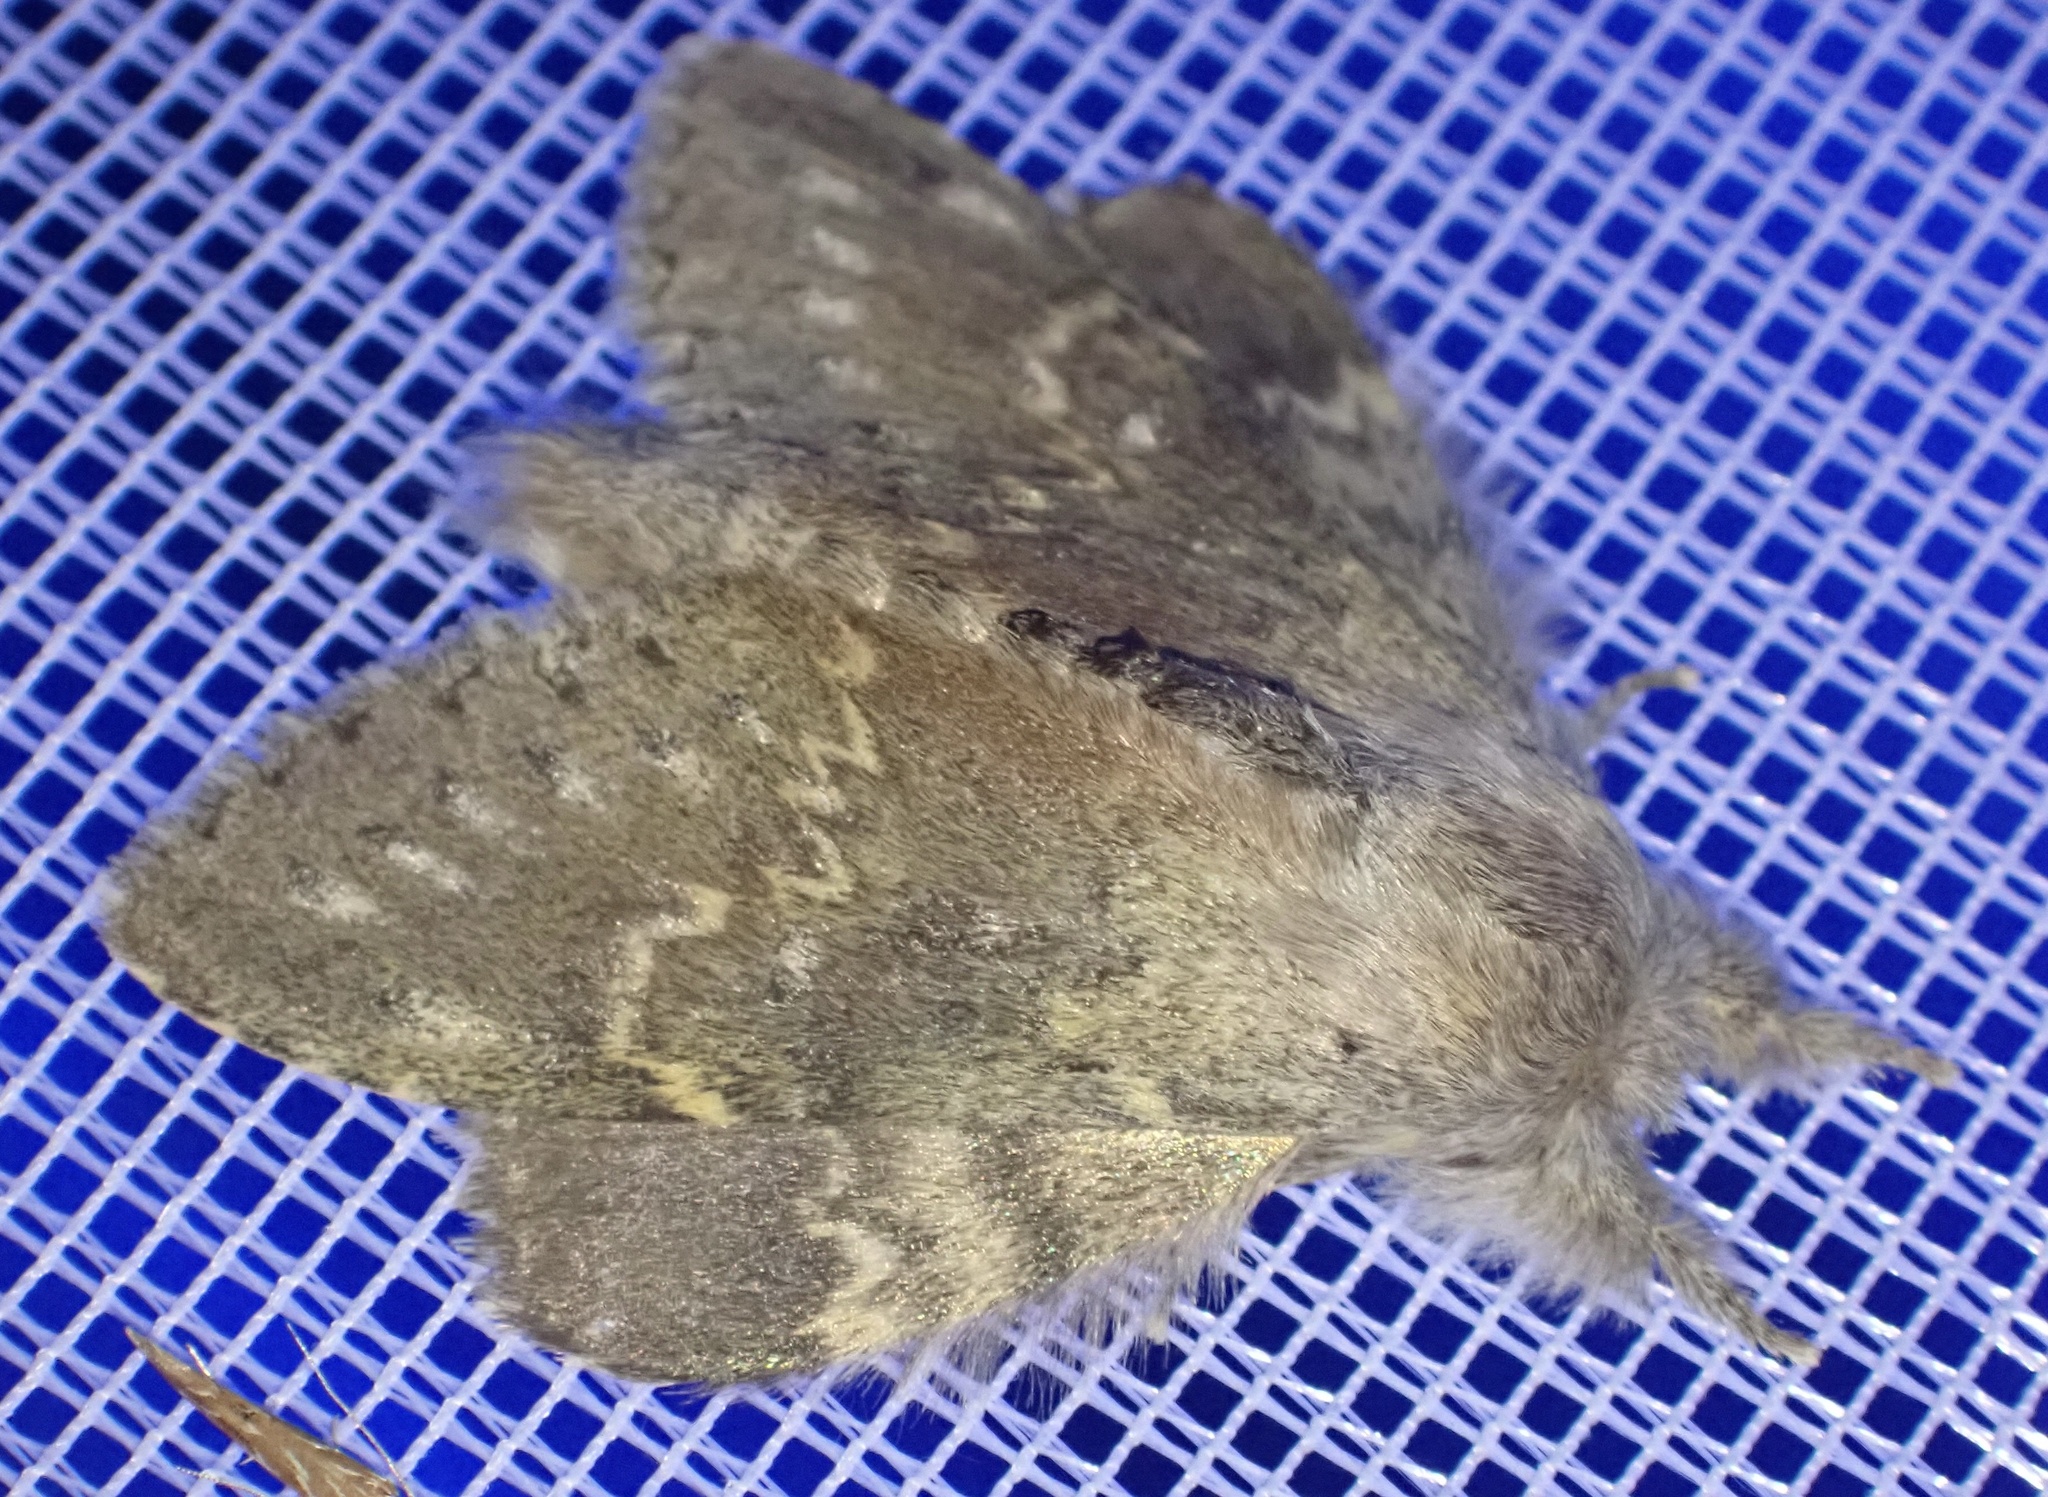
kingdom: Animalia
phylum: Arthropoda
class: Insecta
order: Lepidoptera
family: Notodontidae
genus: Stauropus
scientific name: Stauropus fagi
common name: Lobster moth
